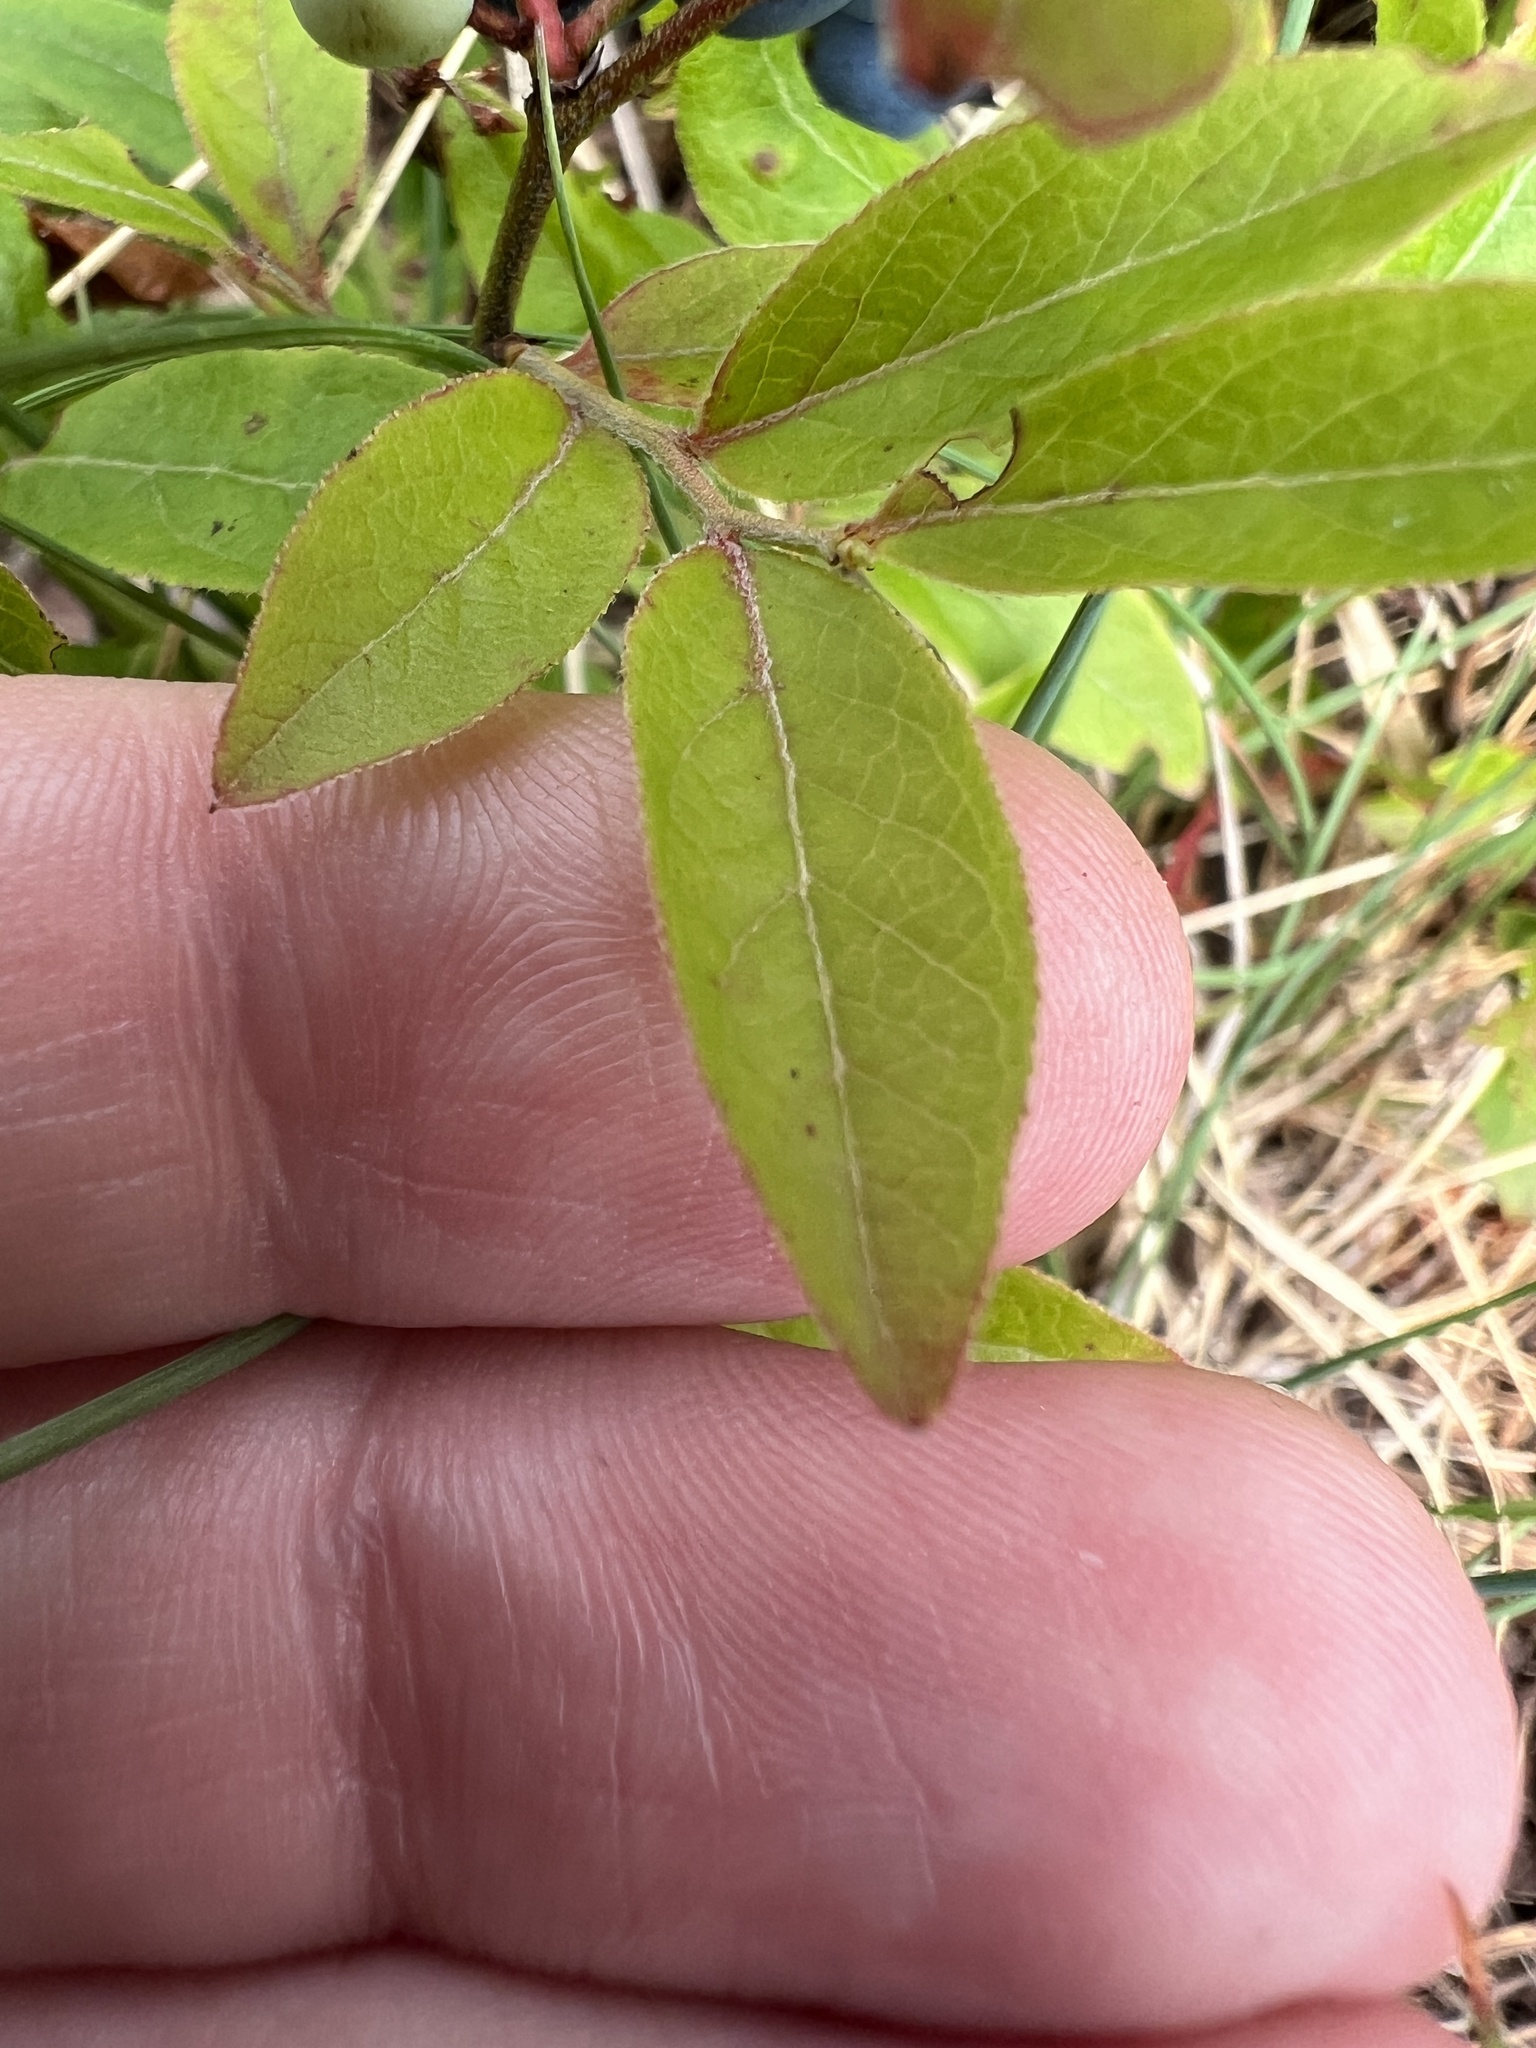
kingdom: Plantae
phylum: Tracheophyta
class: Magnoliopsida
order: Ericales
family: Ericaceae
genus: Vaccinium
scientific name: Vaccinium angustifolium
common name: Early lowbush blueberry
